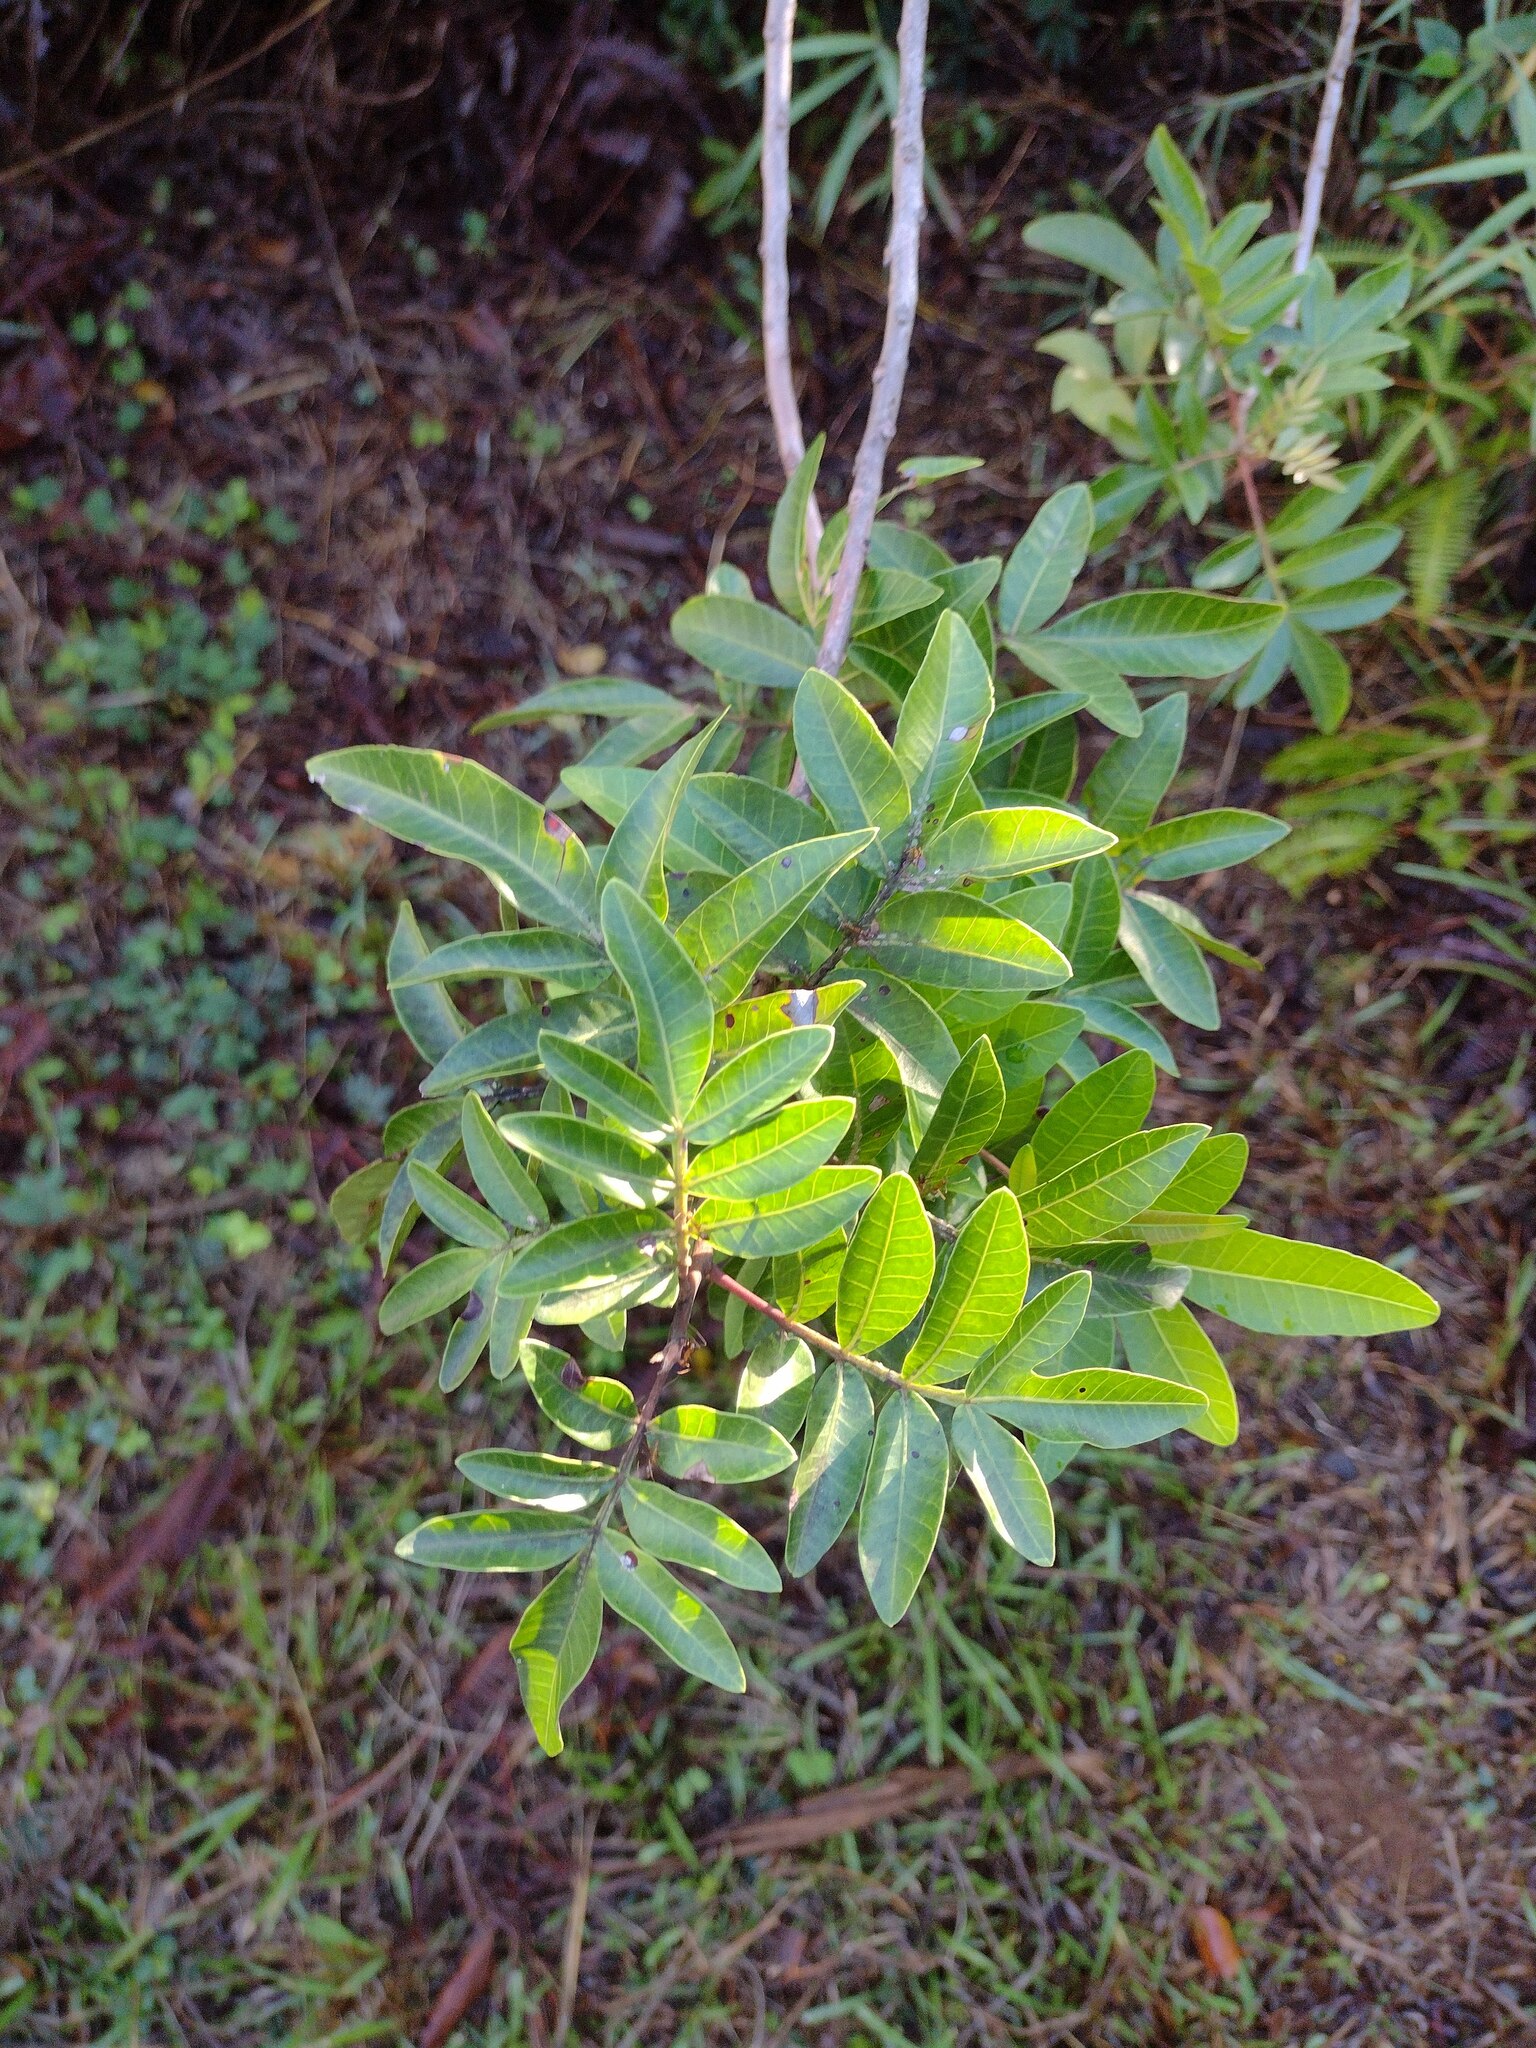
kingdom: Plantae
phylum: Tracheophyta
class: Magnoliopsida
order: Sapindales
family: Anacardiaceae
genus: Schinus
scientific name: Schinus terebinthifolia
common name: Brazilian peppertree
